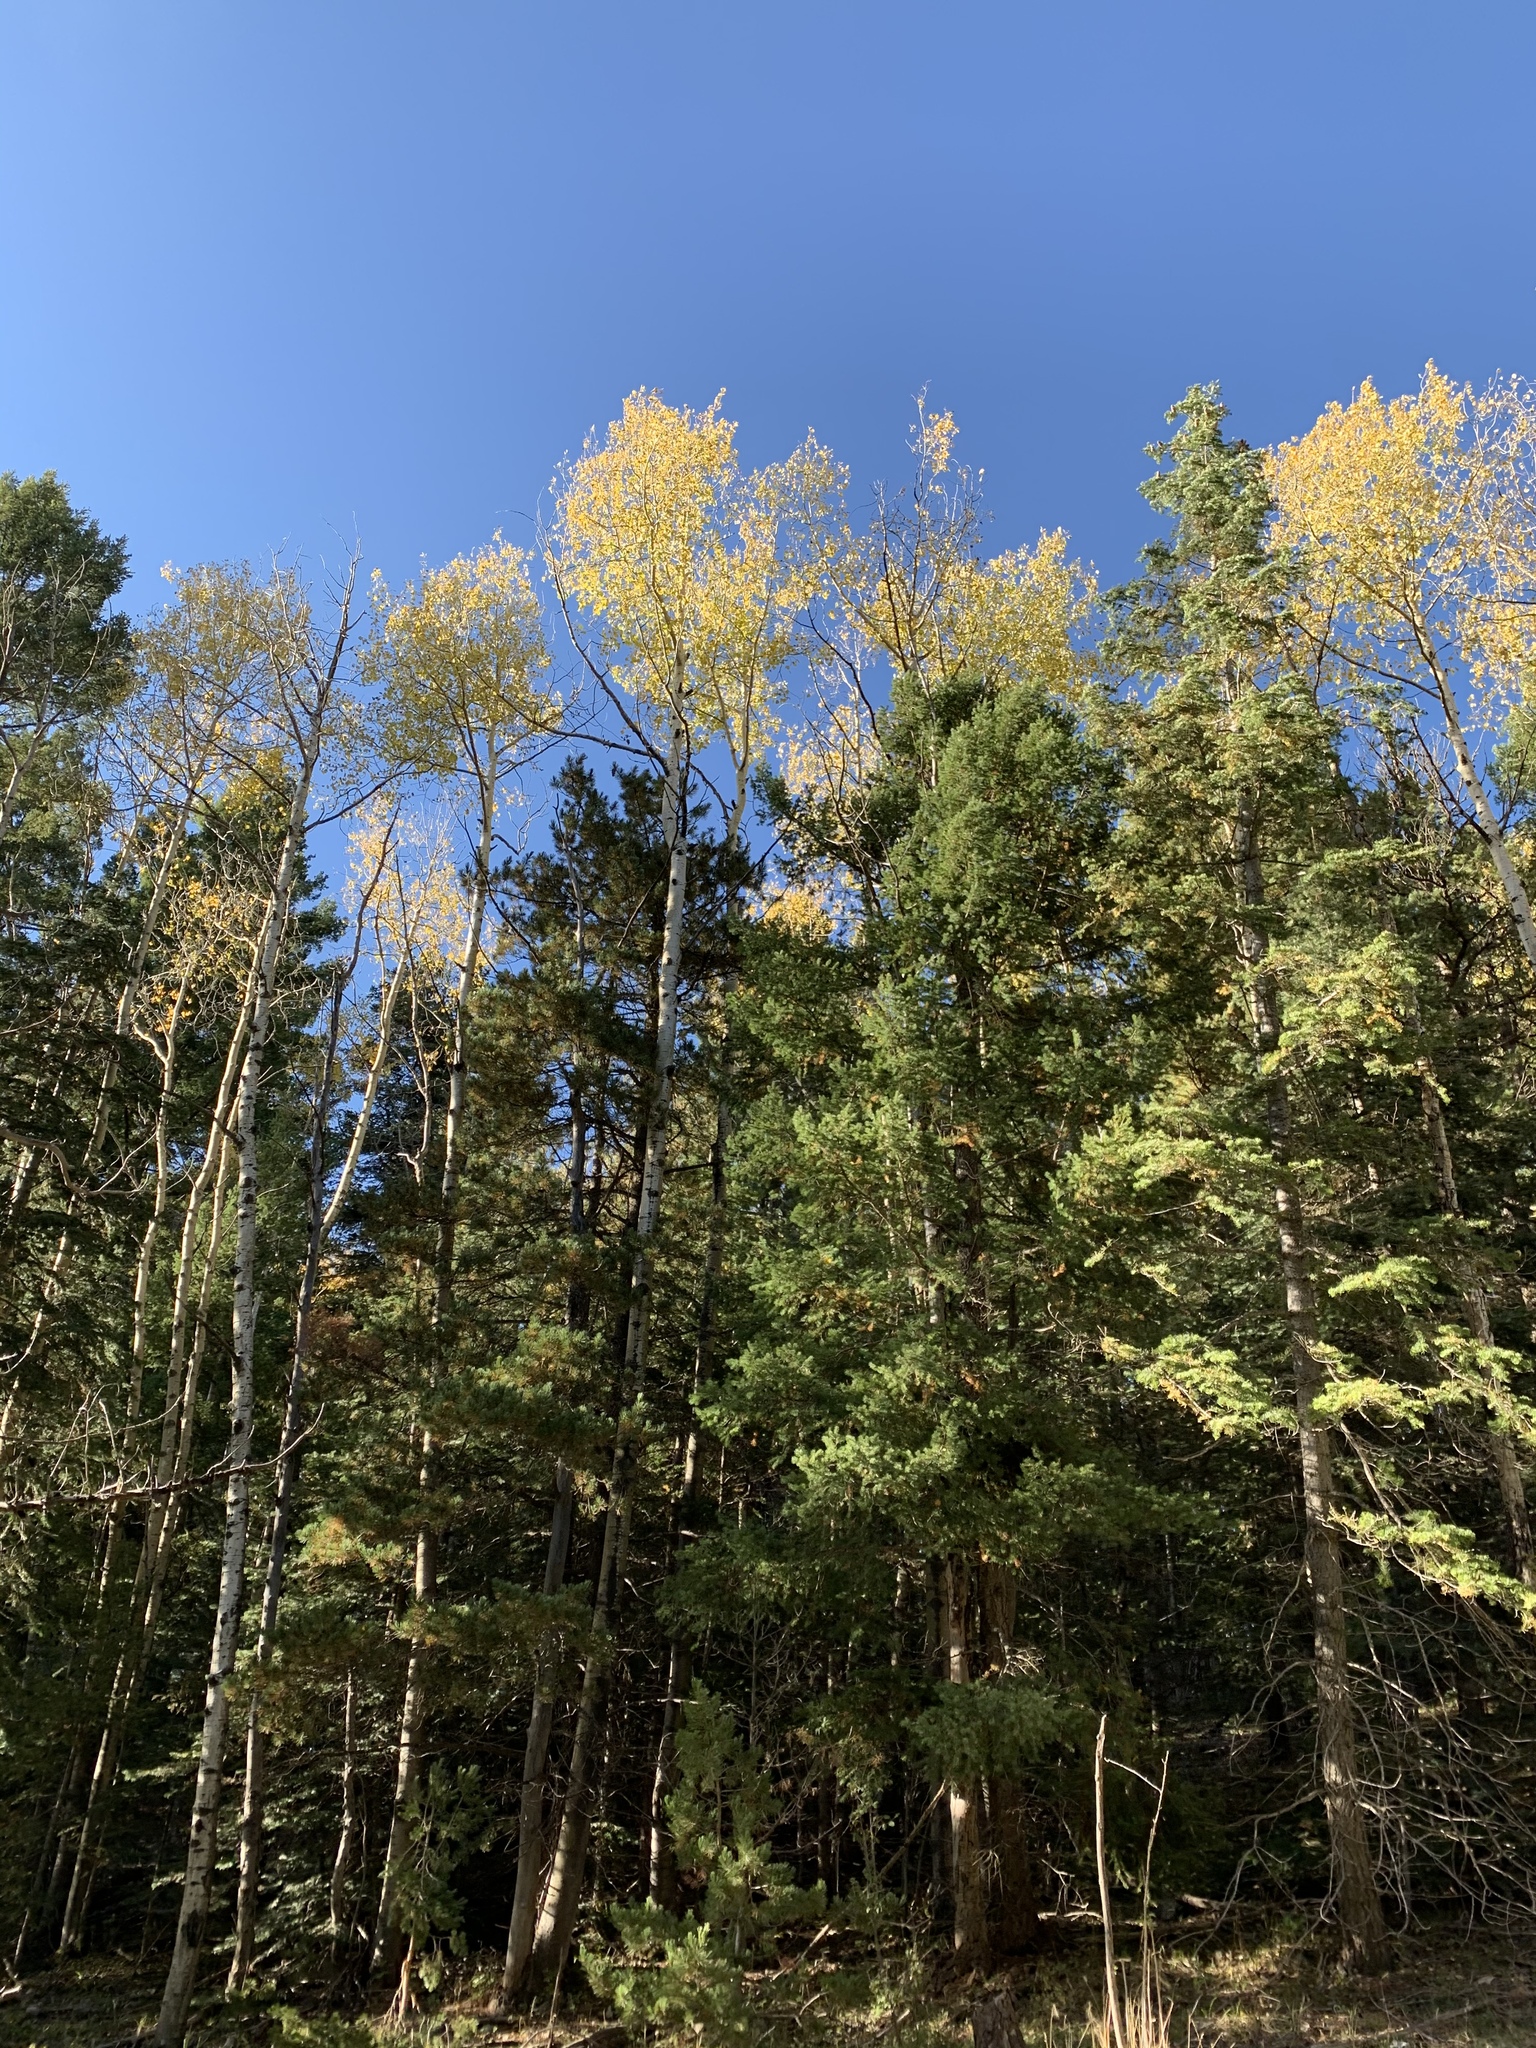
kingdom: Plantae
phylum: Tracheophyta
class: Magnoliopsida
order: Malpighiales
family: Salicaceae
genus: Populus
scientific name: Populus tremuloides
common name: Quaking aspen
